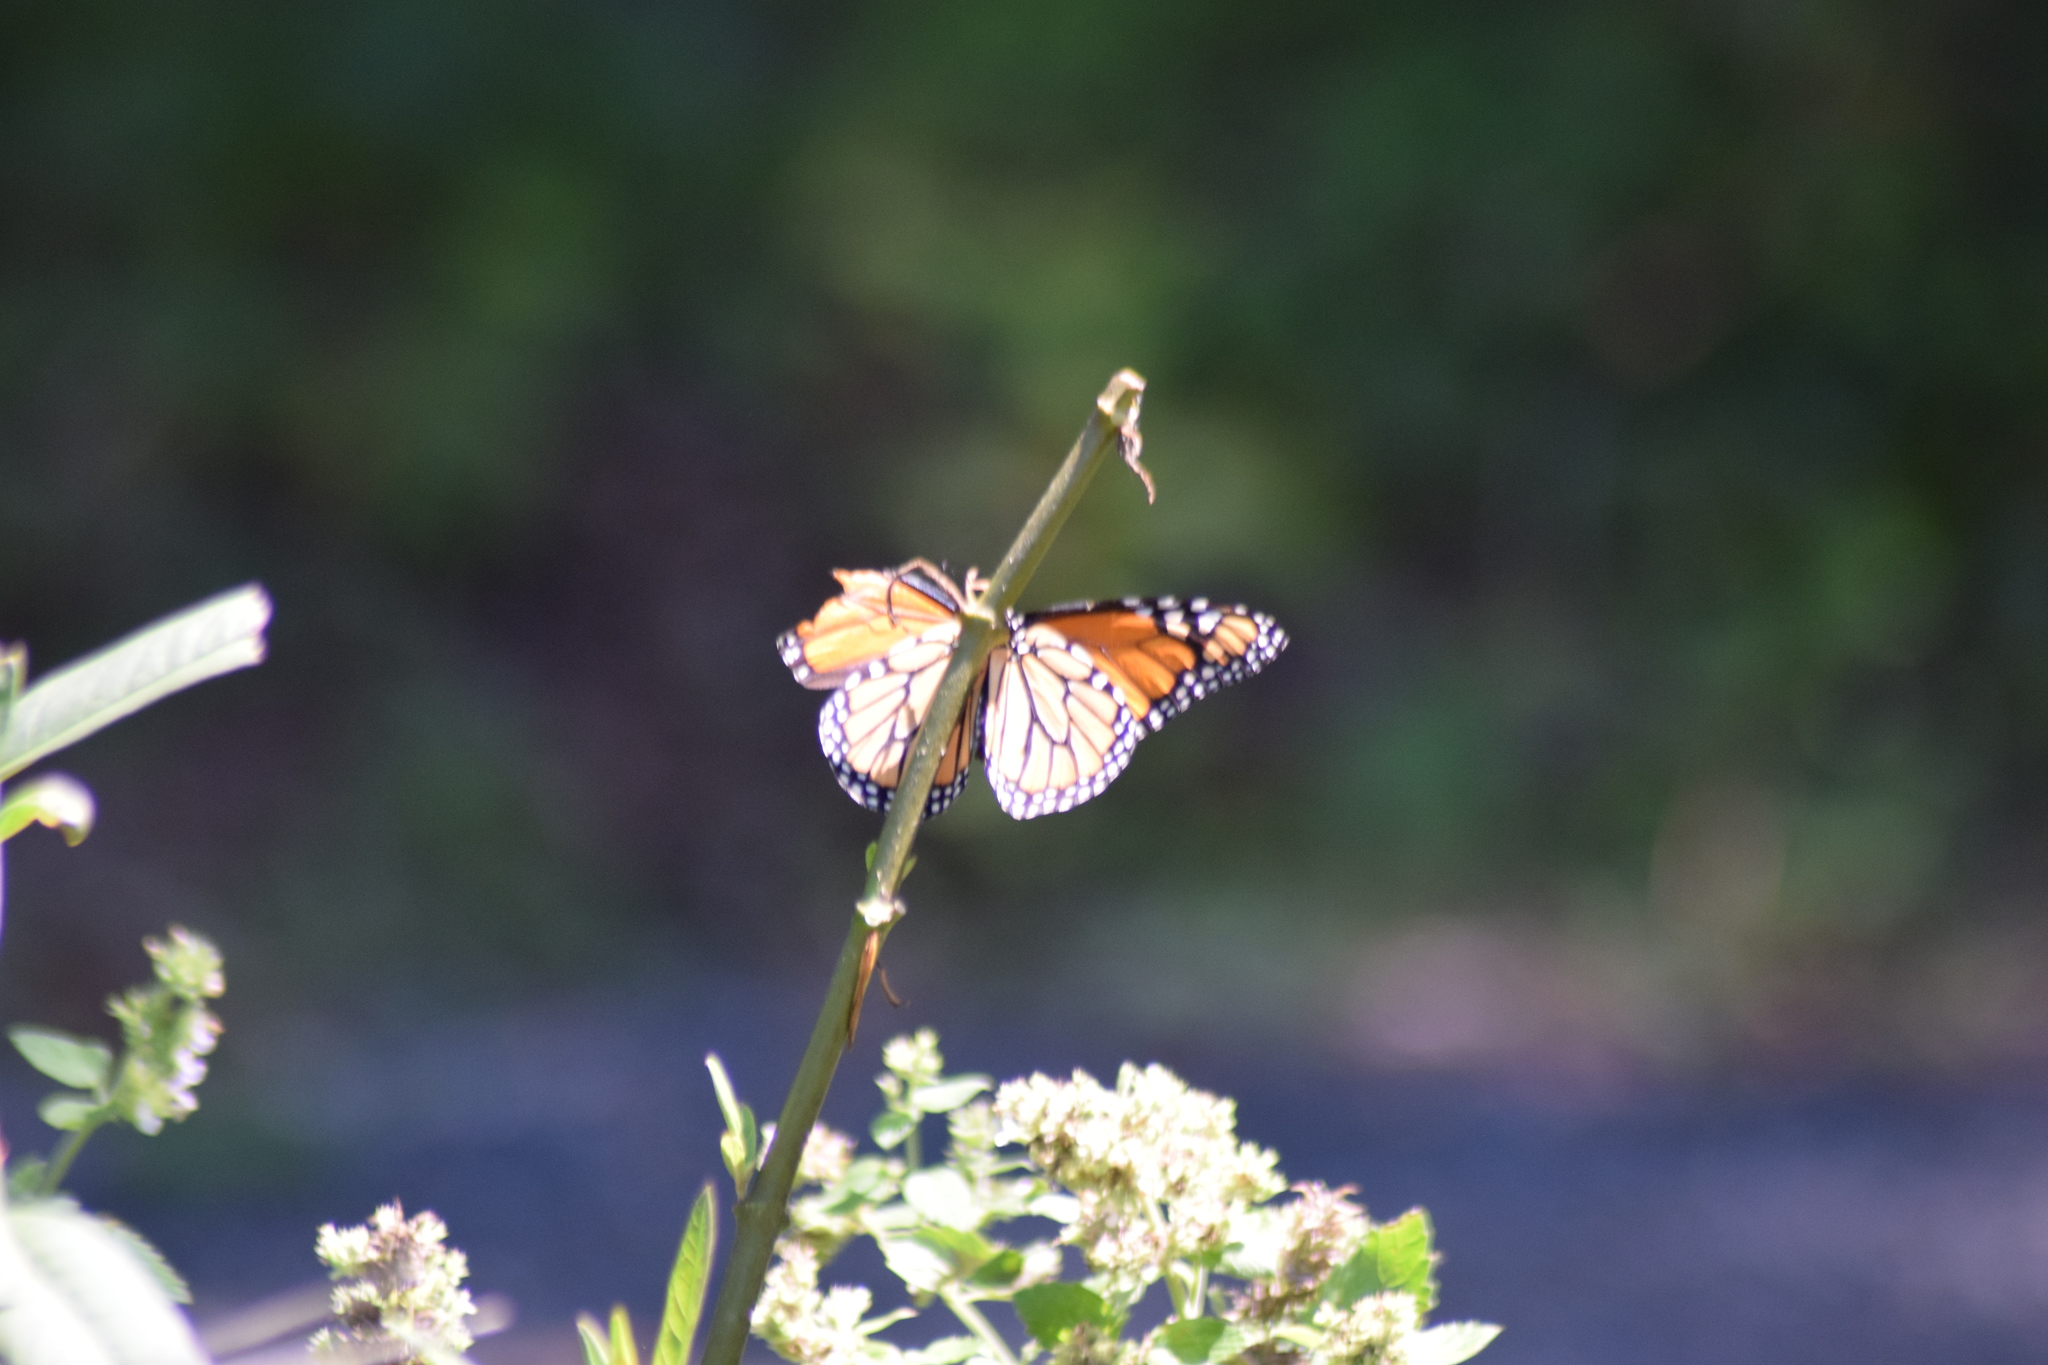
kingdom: Animalia
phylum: Arthropoda
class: Insecta
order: Lepidoptera
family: Nymphalidae
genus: Danaus
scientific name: Danaus plexippus
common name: Monarch
